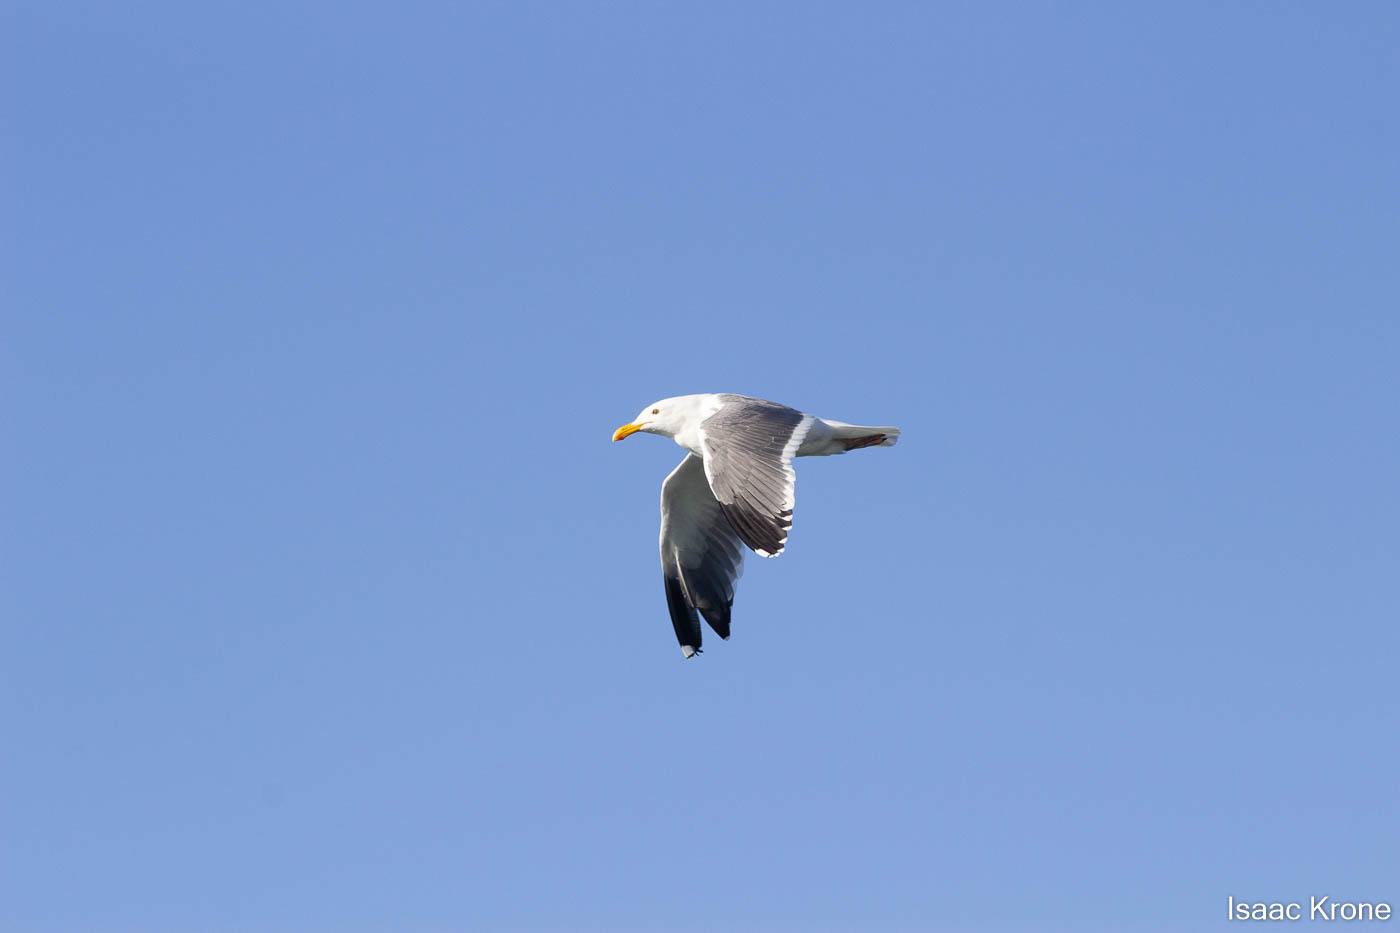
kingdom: Animalia
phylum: Chordata
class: Aves
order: Charadriiformes
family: Laridae
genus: Larus
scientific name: Larus occidentalis
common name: Western gull
